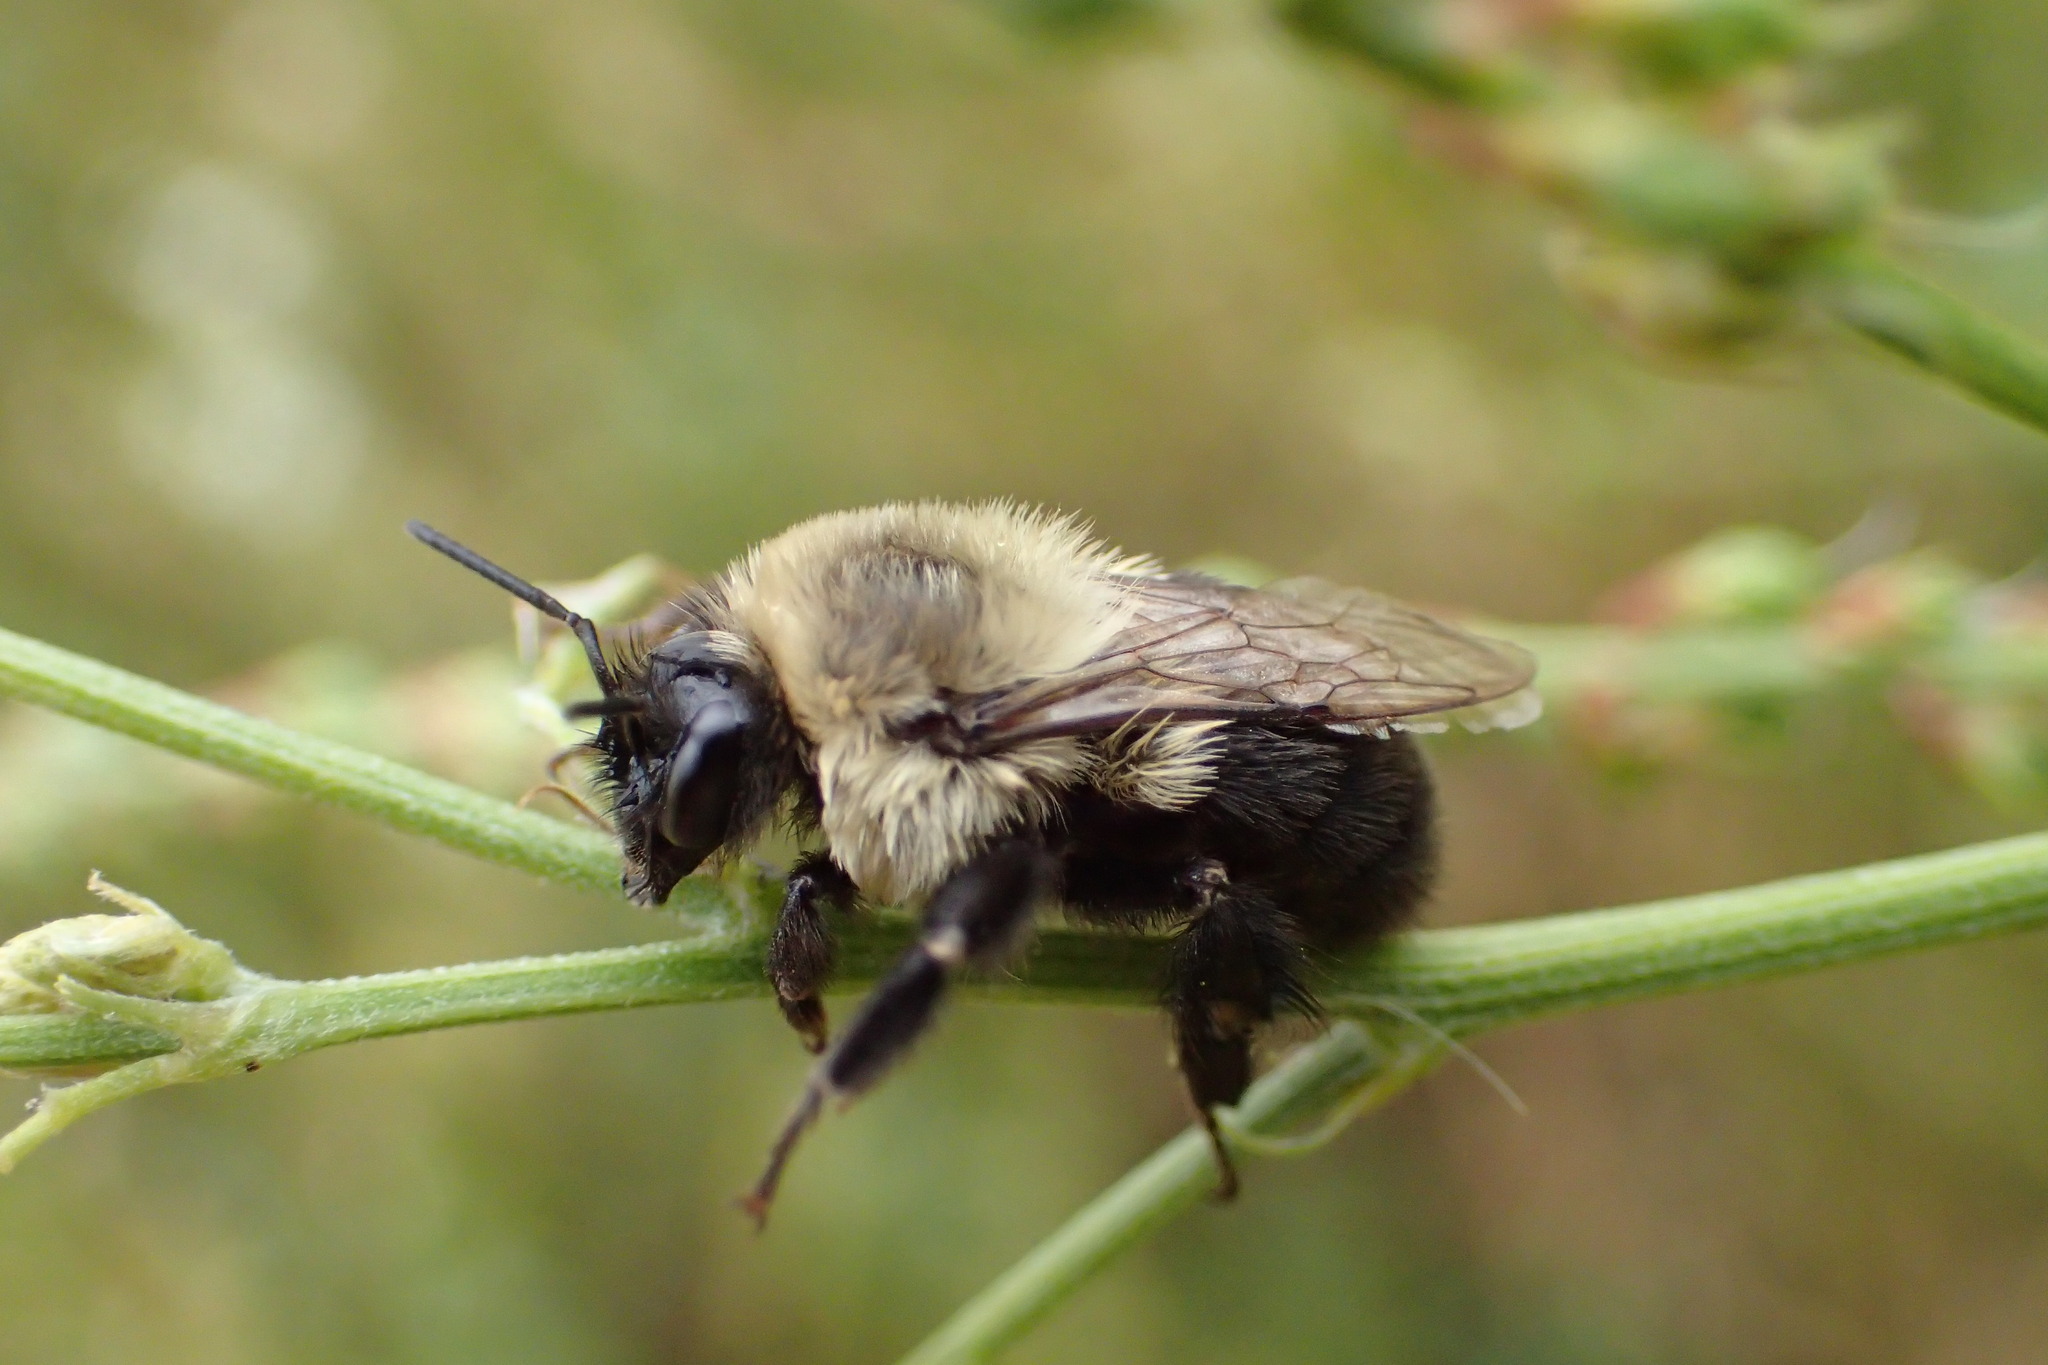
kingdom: Animalia
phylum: Arthropoda
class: Insecta
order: Hymenoptera
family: Apidae
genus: Bombus
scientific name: Bombus impatiens
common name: Common eastern bumble bee
